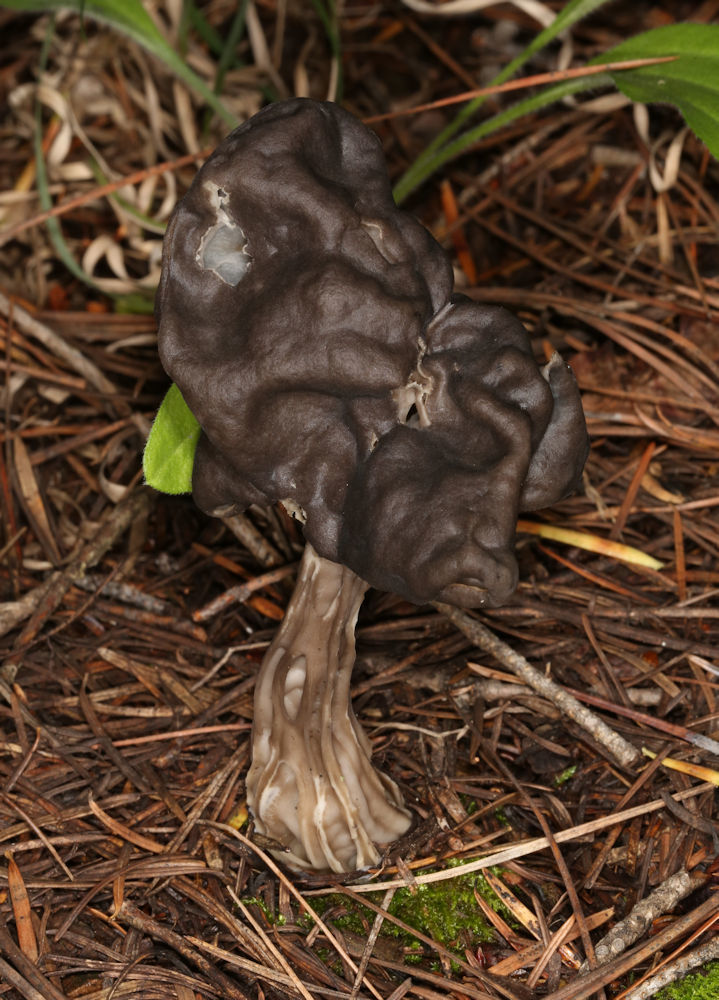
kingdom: Fungi
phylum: Ascomycota
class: Pezizomycetes
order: Pezizales
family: Helvellaceae
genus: Helvella
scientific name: Helvella vespertina
